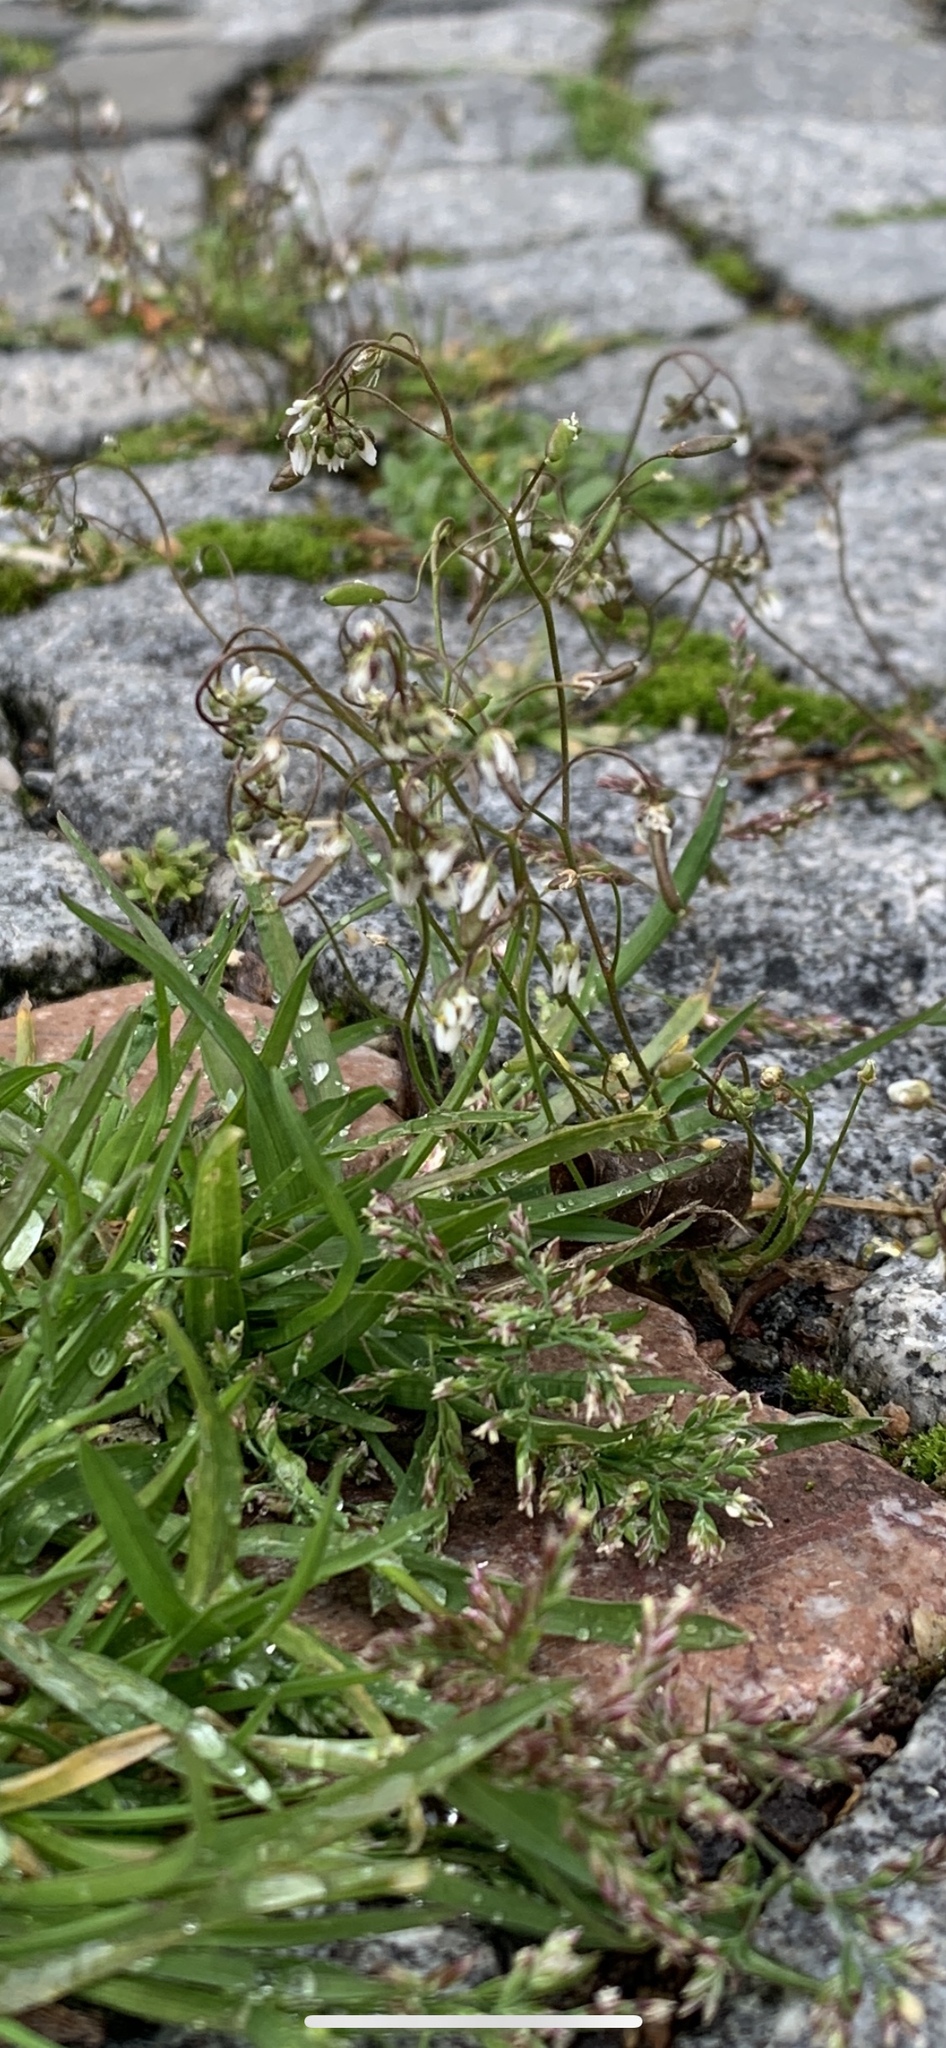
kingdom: Plantae
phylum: Tracheophyta
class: Magnoliopsida
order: Brassicales
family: Brassicaceae
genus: Draba
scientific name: Draba verna
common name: Spring draba
